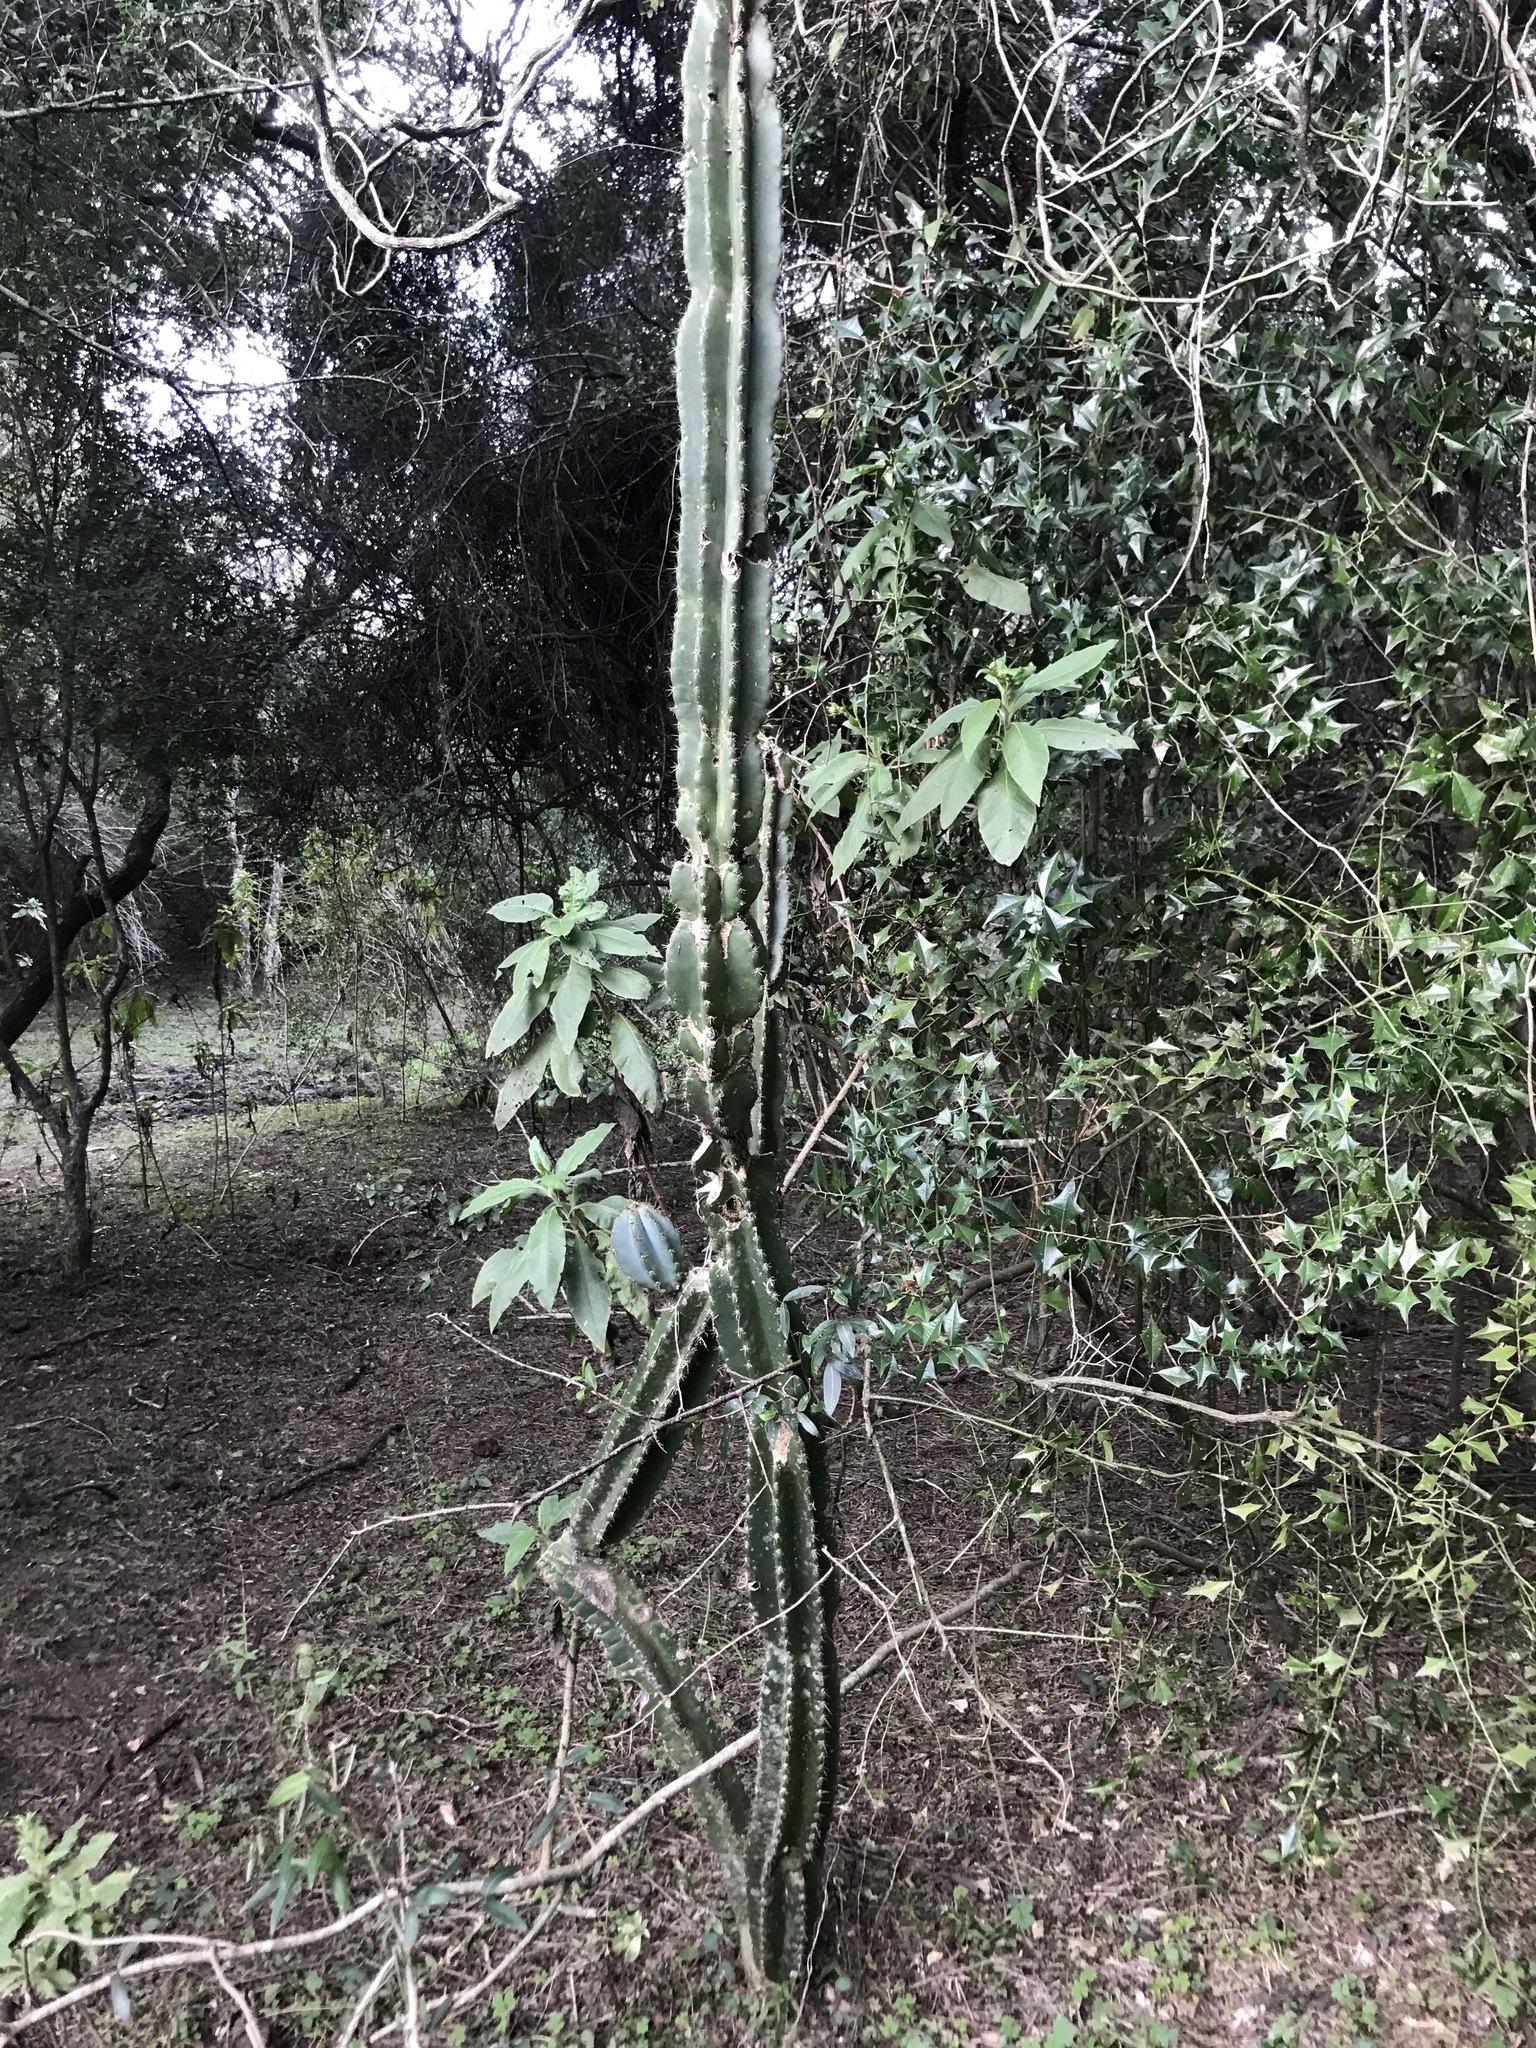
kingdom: Plantae
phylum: Tracheophyta
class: Magnoliopsida
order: Caryophyllales
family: Cactaceae
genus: Cereus
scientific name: Cereus hildmannianus
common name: Hedge cactus
